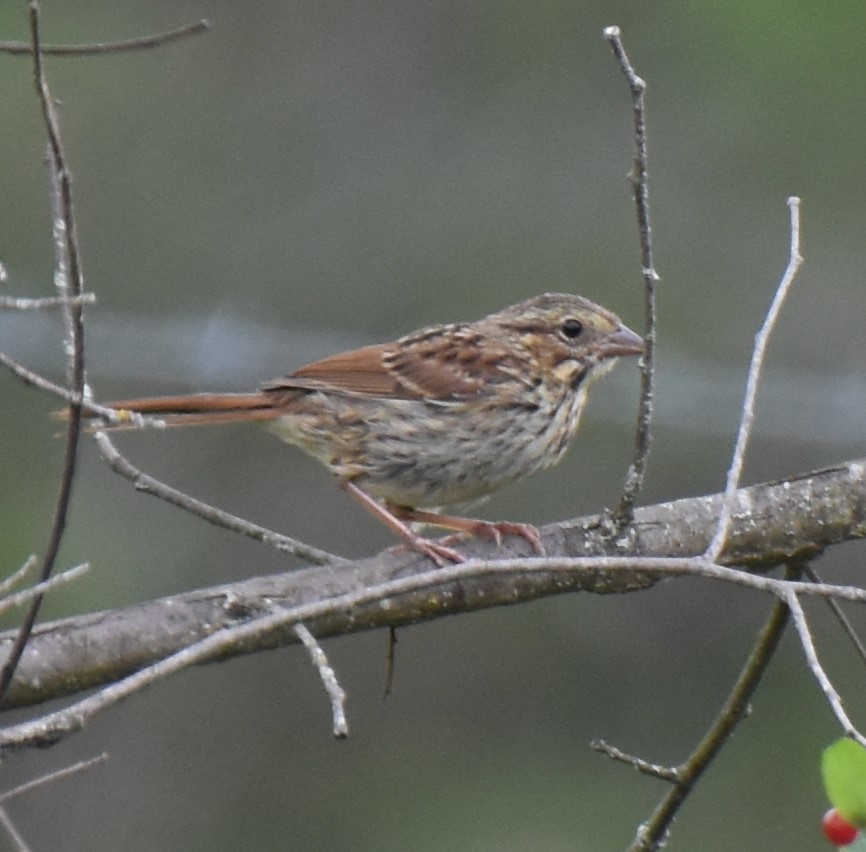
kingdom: Animalia
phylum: Chordata
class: Aves
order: Passeriformes
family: Passerellidae
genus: Melospiza
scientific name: Melospiza melodia
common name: Song sparrow
